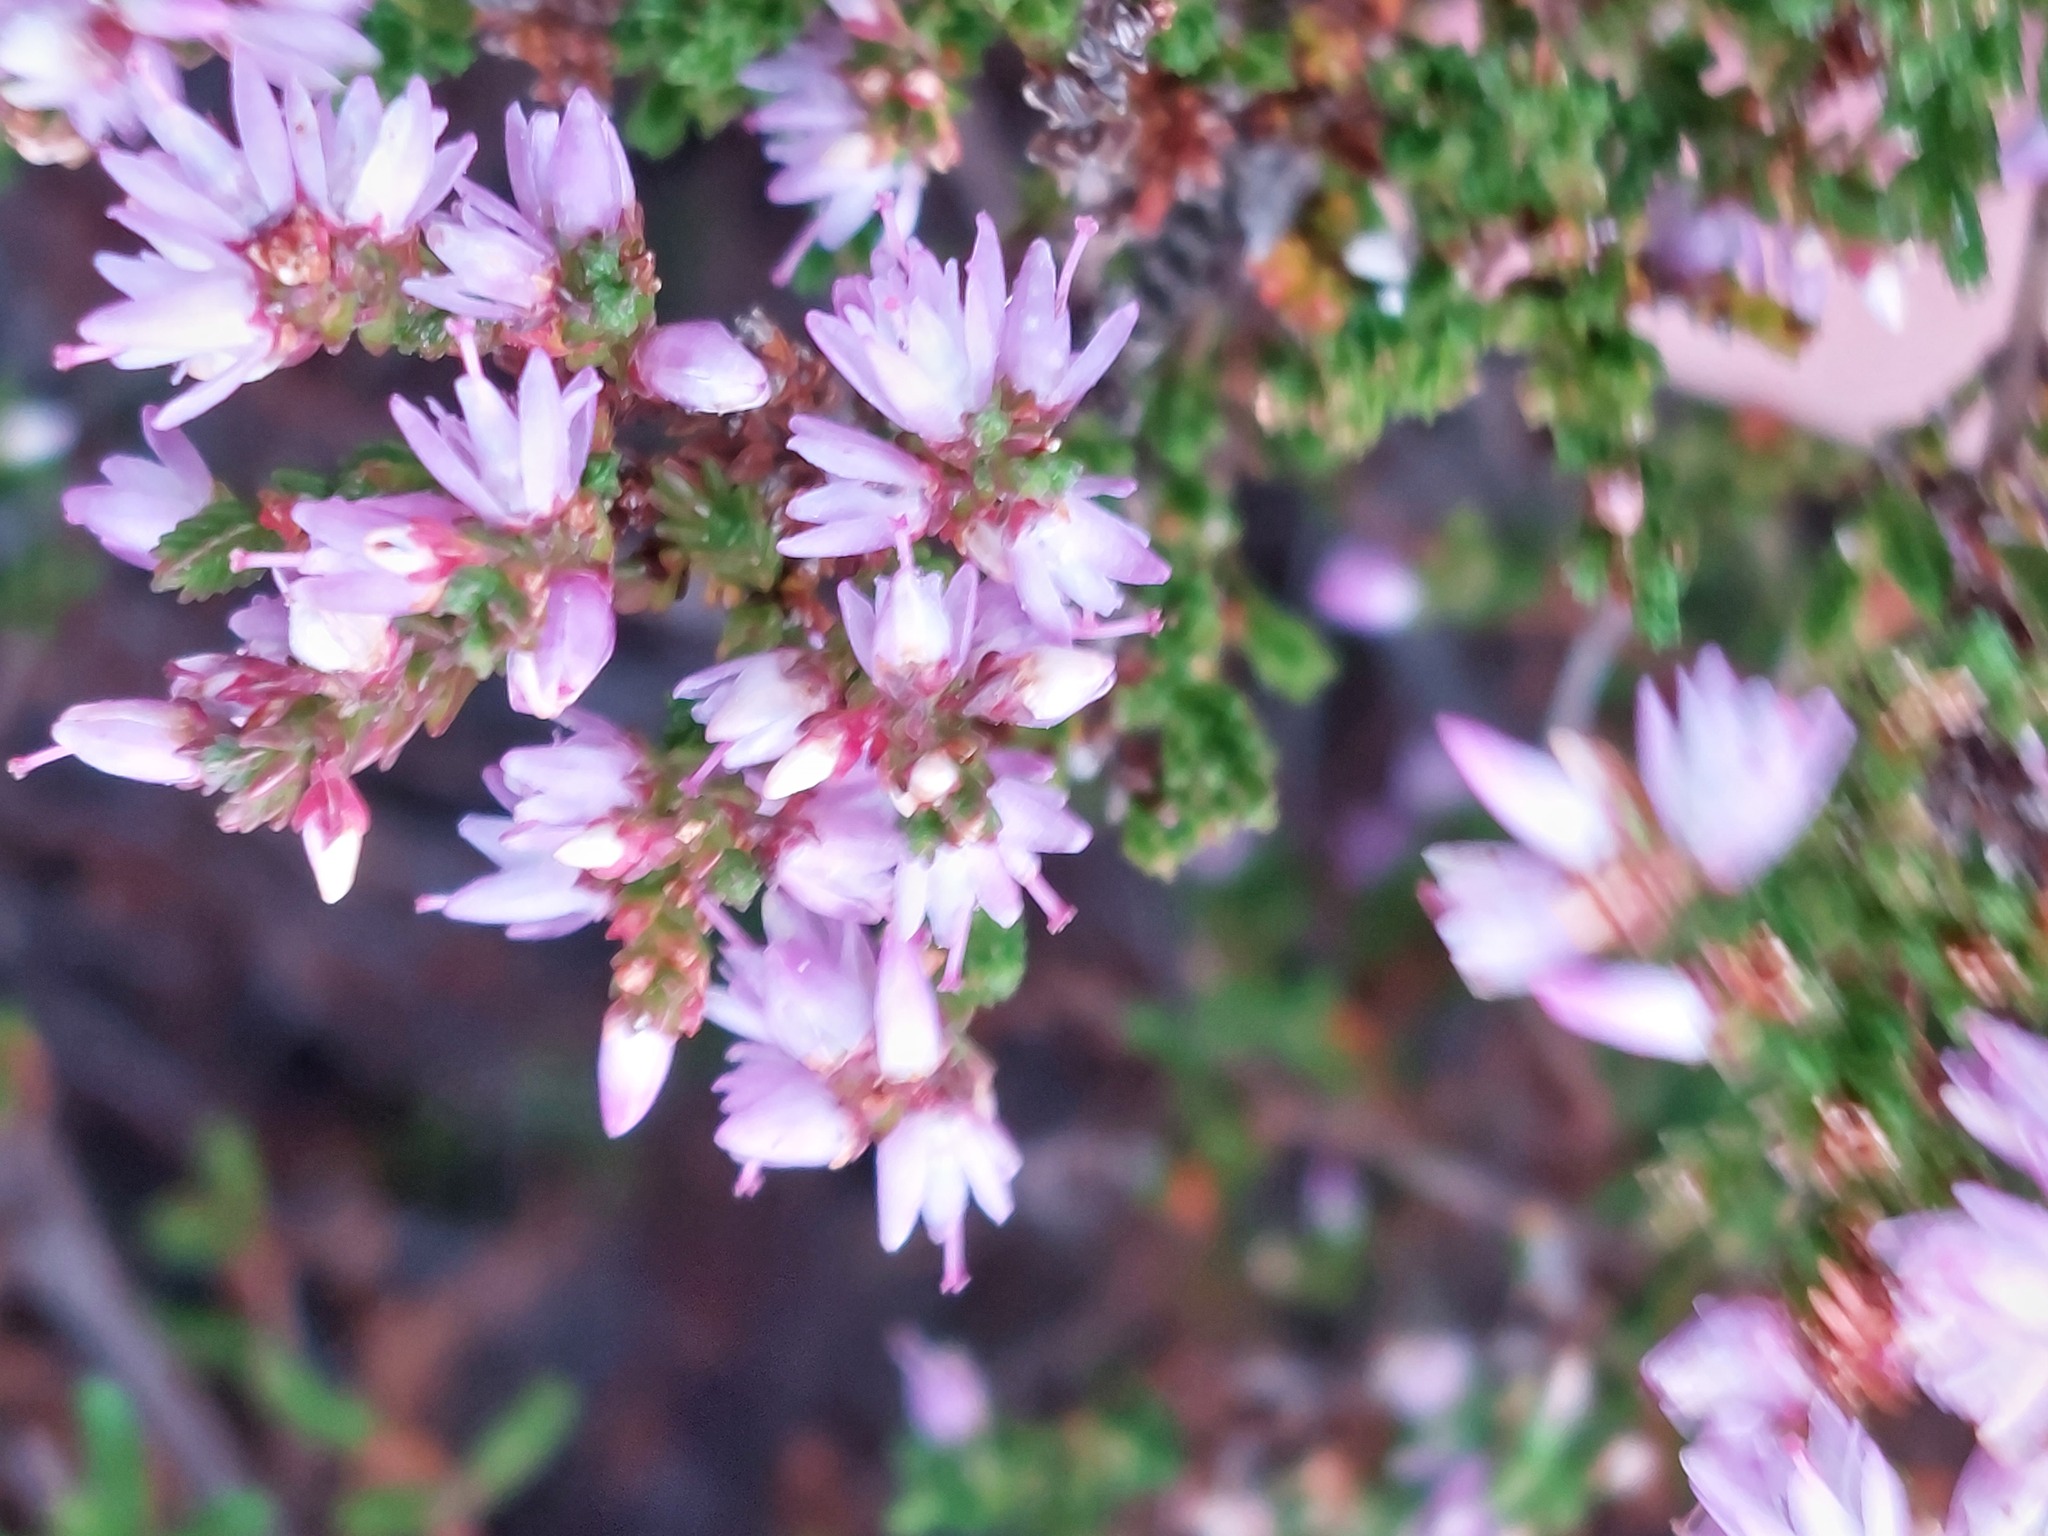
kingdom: Plantae
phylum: Tracheophyta
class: Magnoliopsida
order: Ericales
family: Ericaceae
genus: Calluna
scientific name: Calluna vulgaris
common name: Heather
